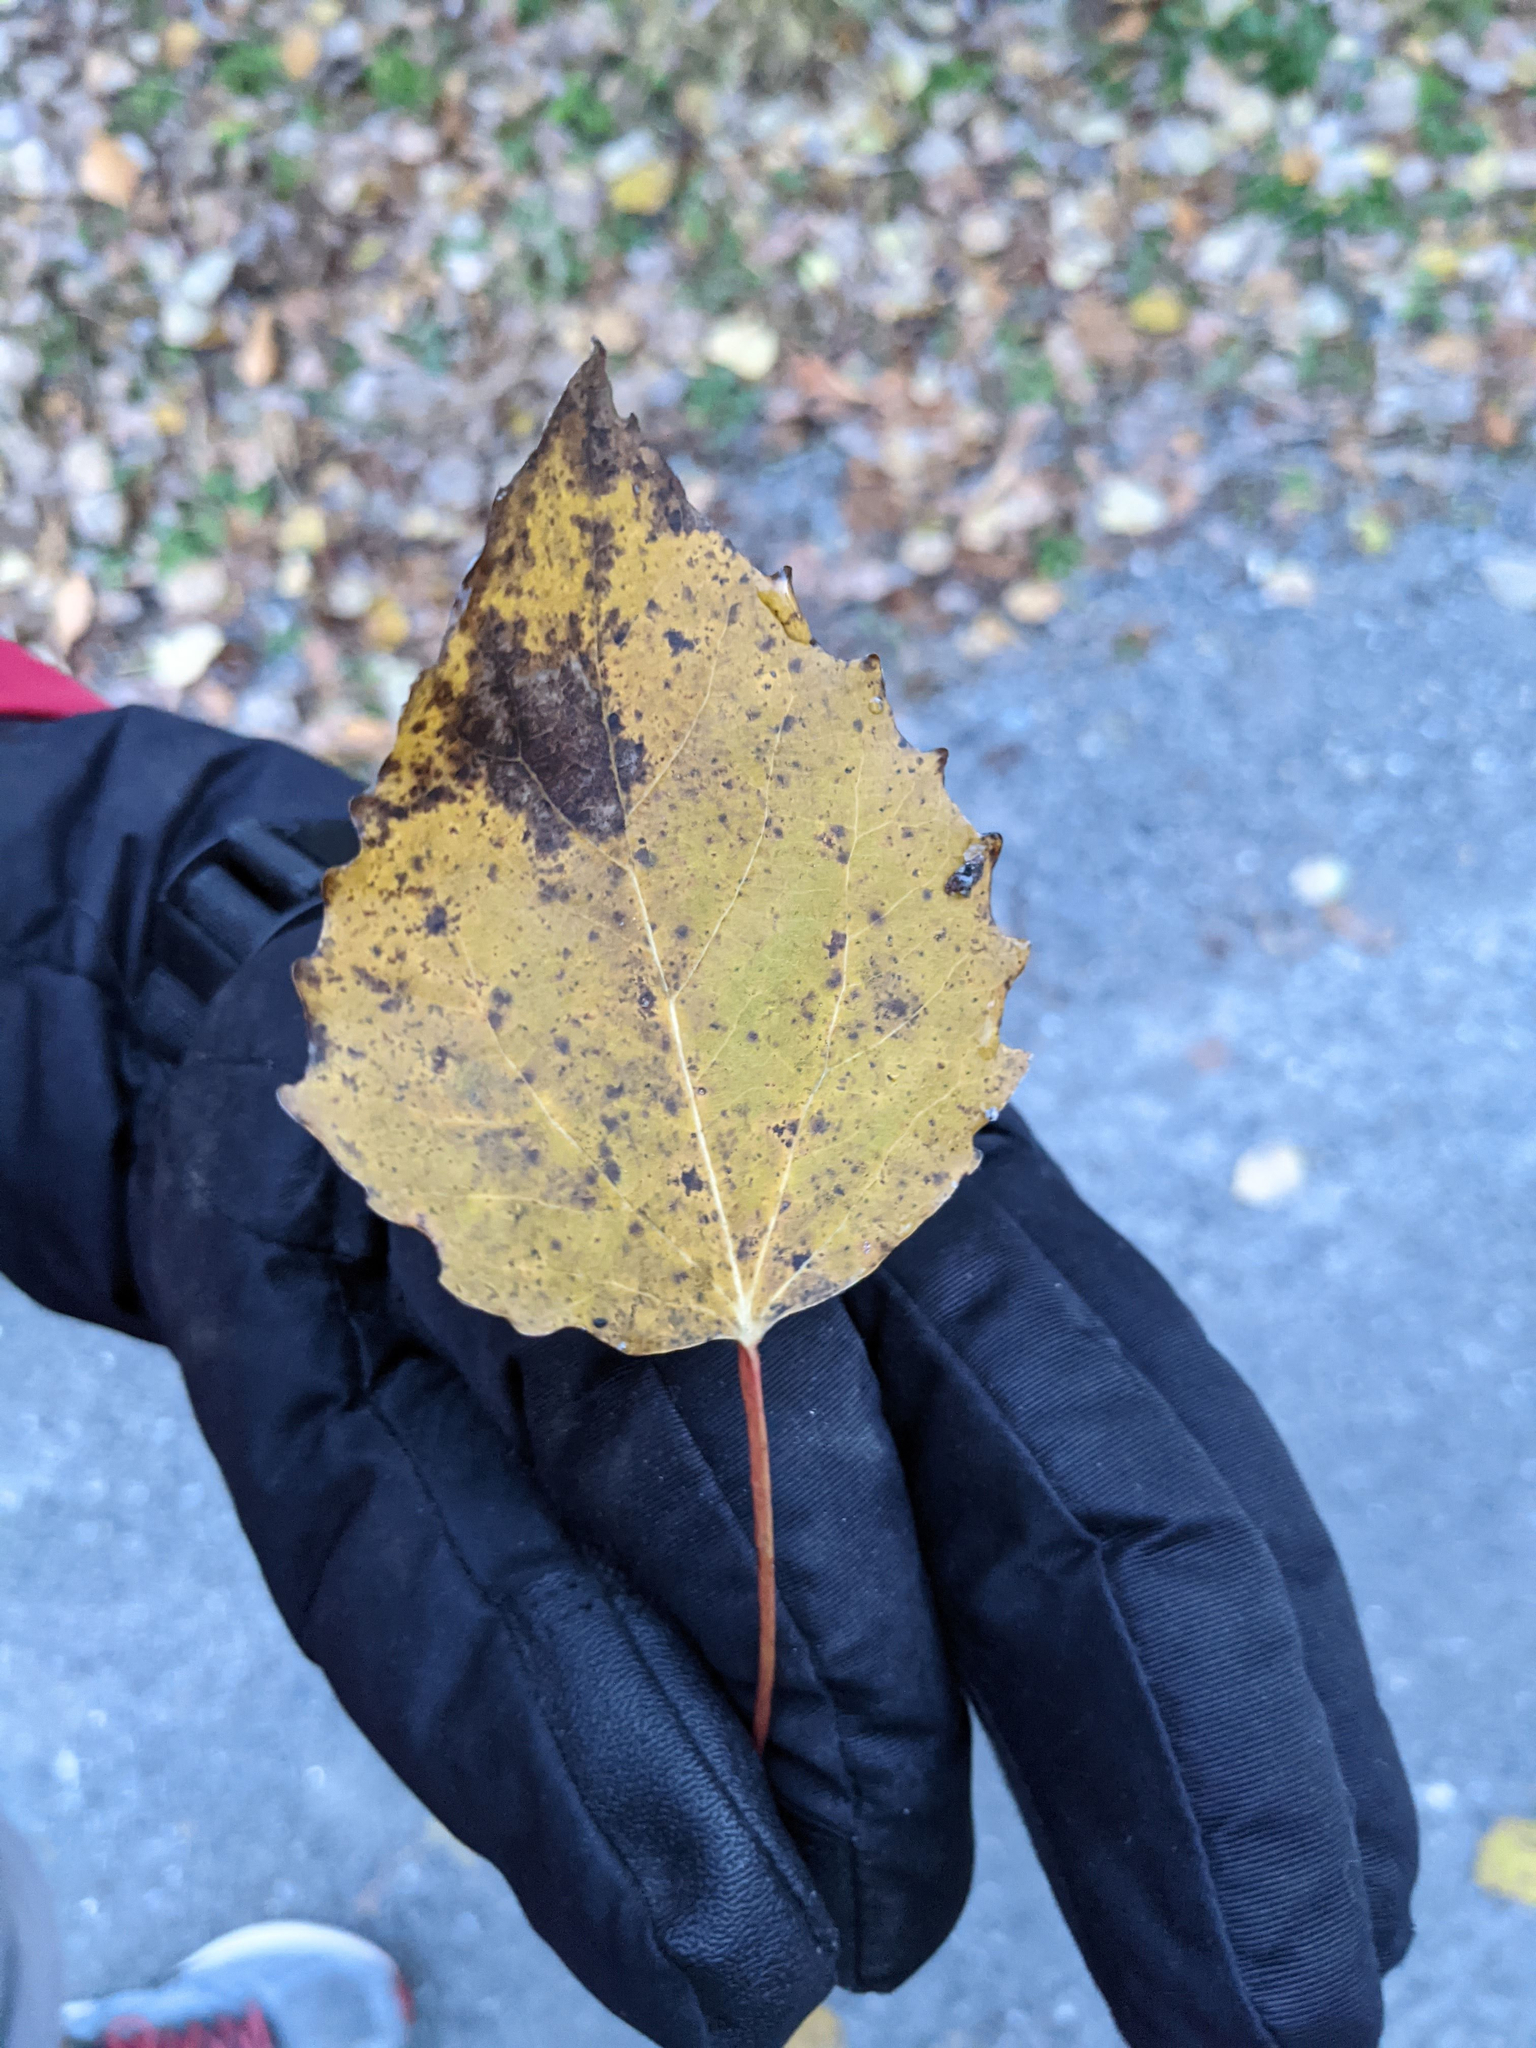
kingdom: Plantae
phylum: Tracheophyta
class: Magnoliopsida
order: Malpighiales
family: Salicaceae
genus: Populus
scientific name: Populus grandidentata
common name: Bigtooth aspen
